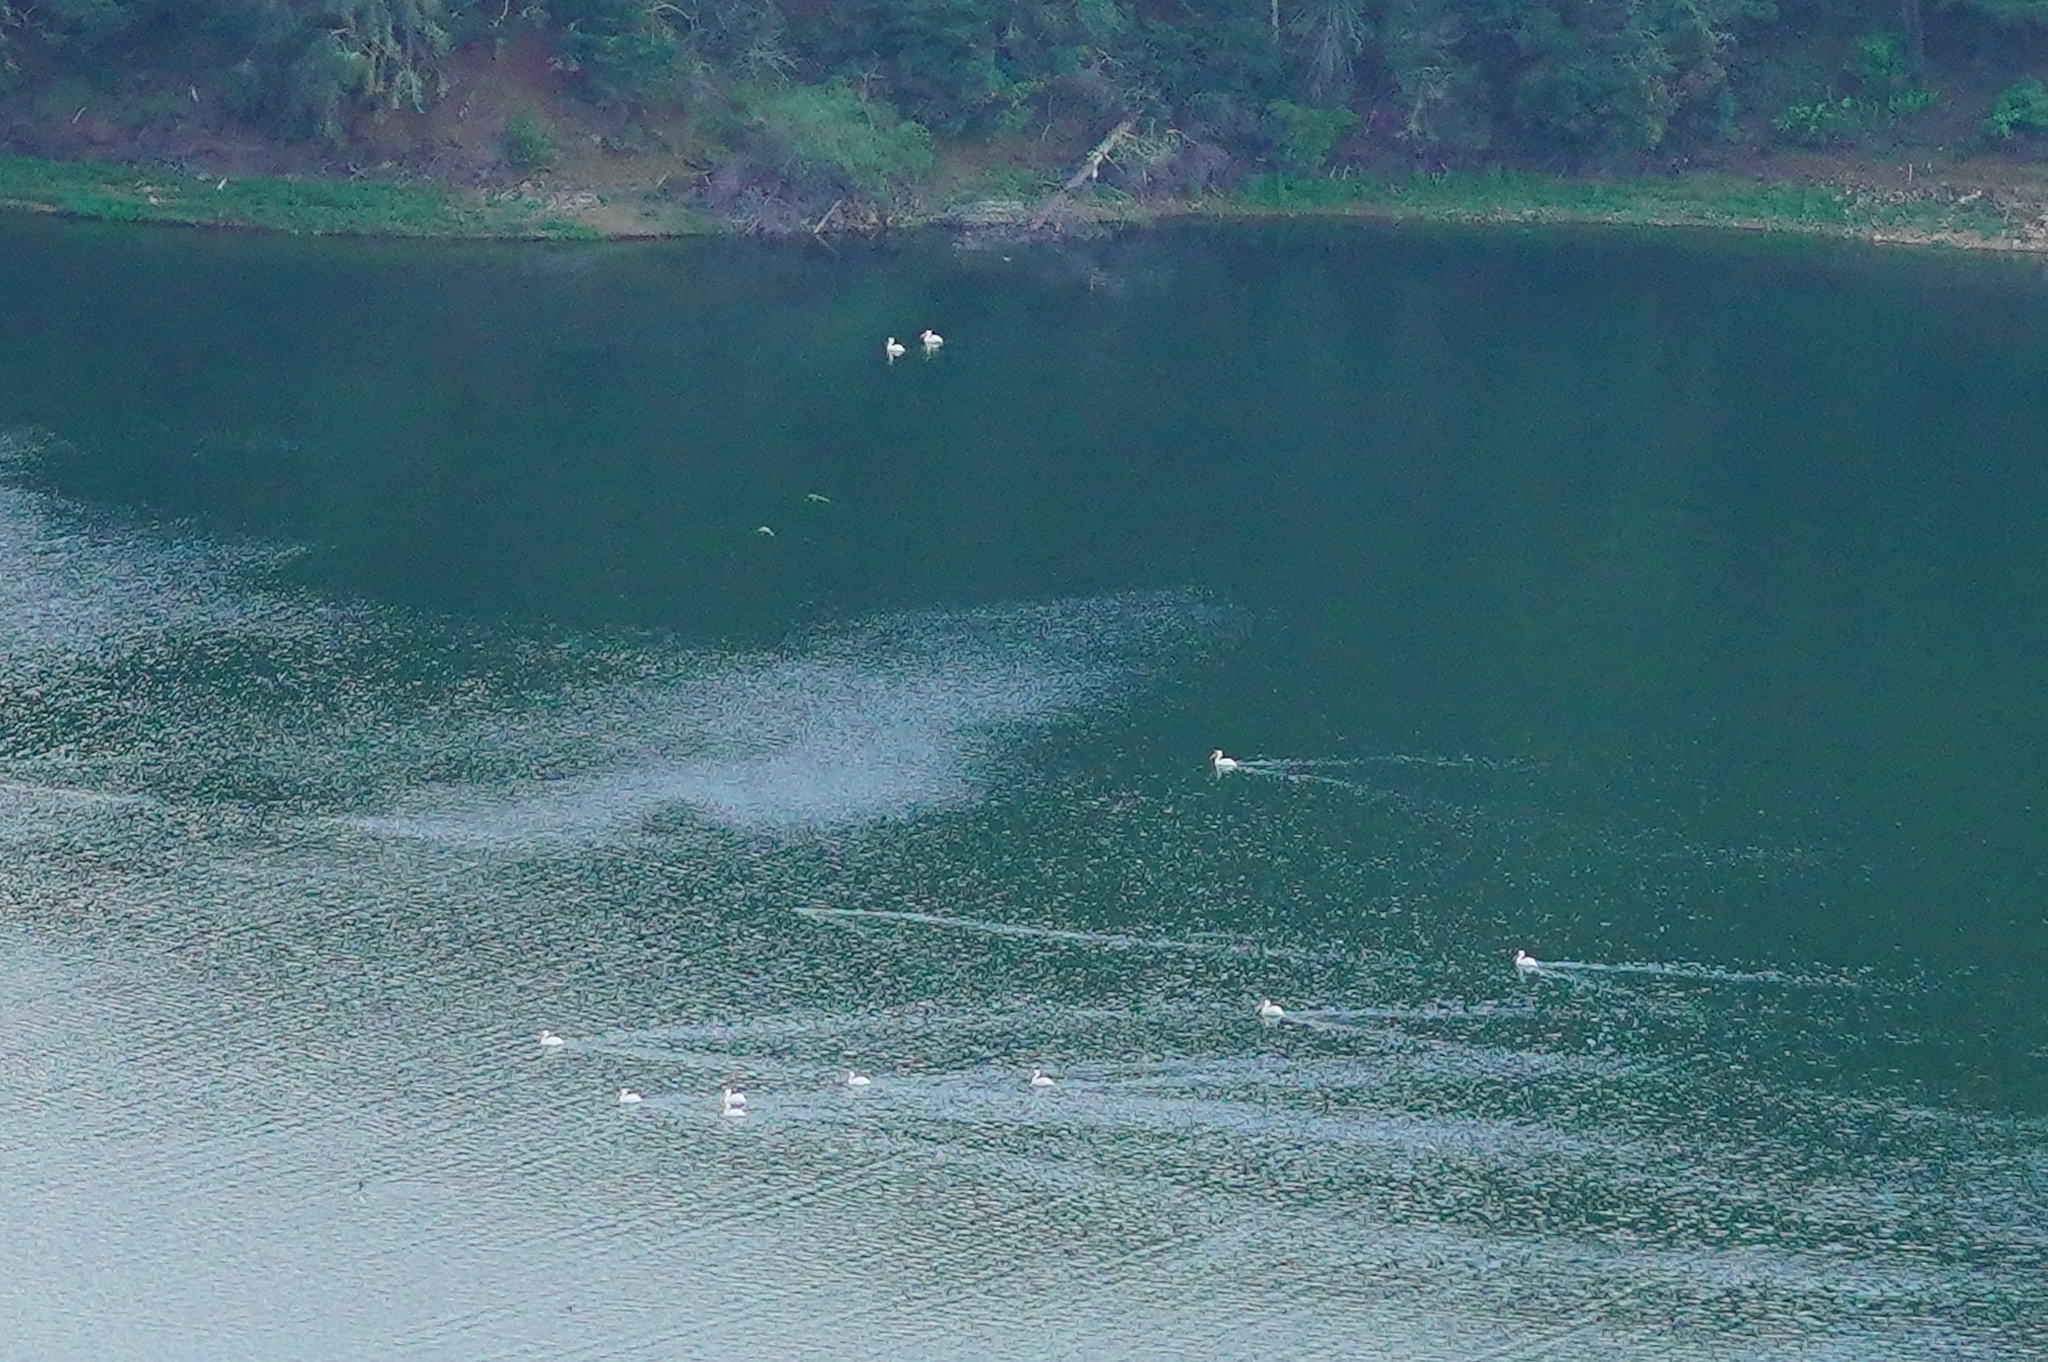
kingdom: Animalia
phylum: Chordata
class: Aves
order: Pelecaniformes
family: Pelecanidae
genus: Pelecanus
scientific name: Pelecanus erythrorhynchos
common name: American white pelican
